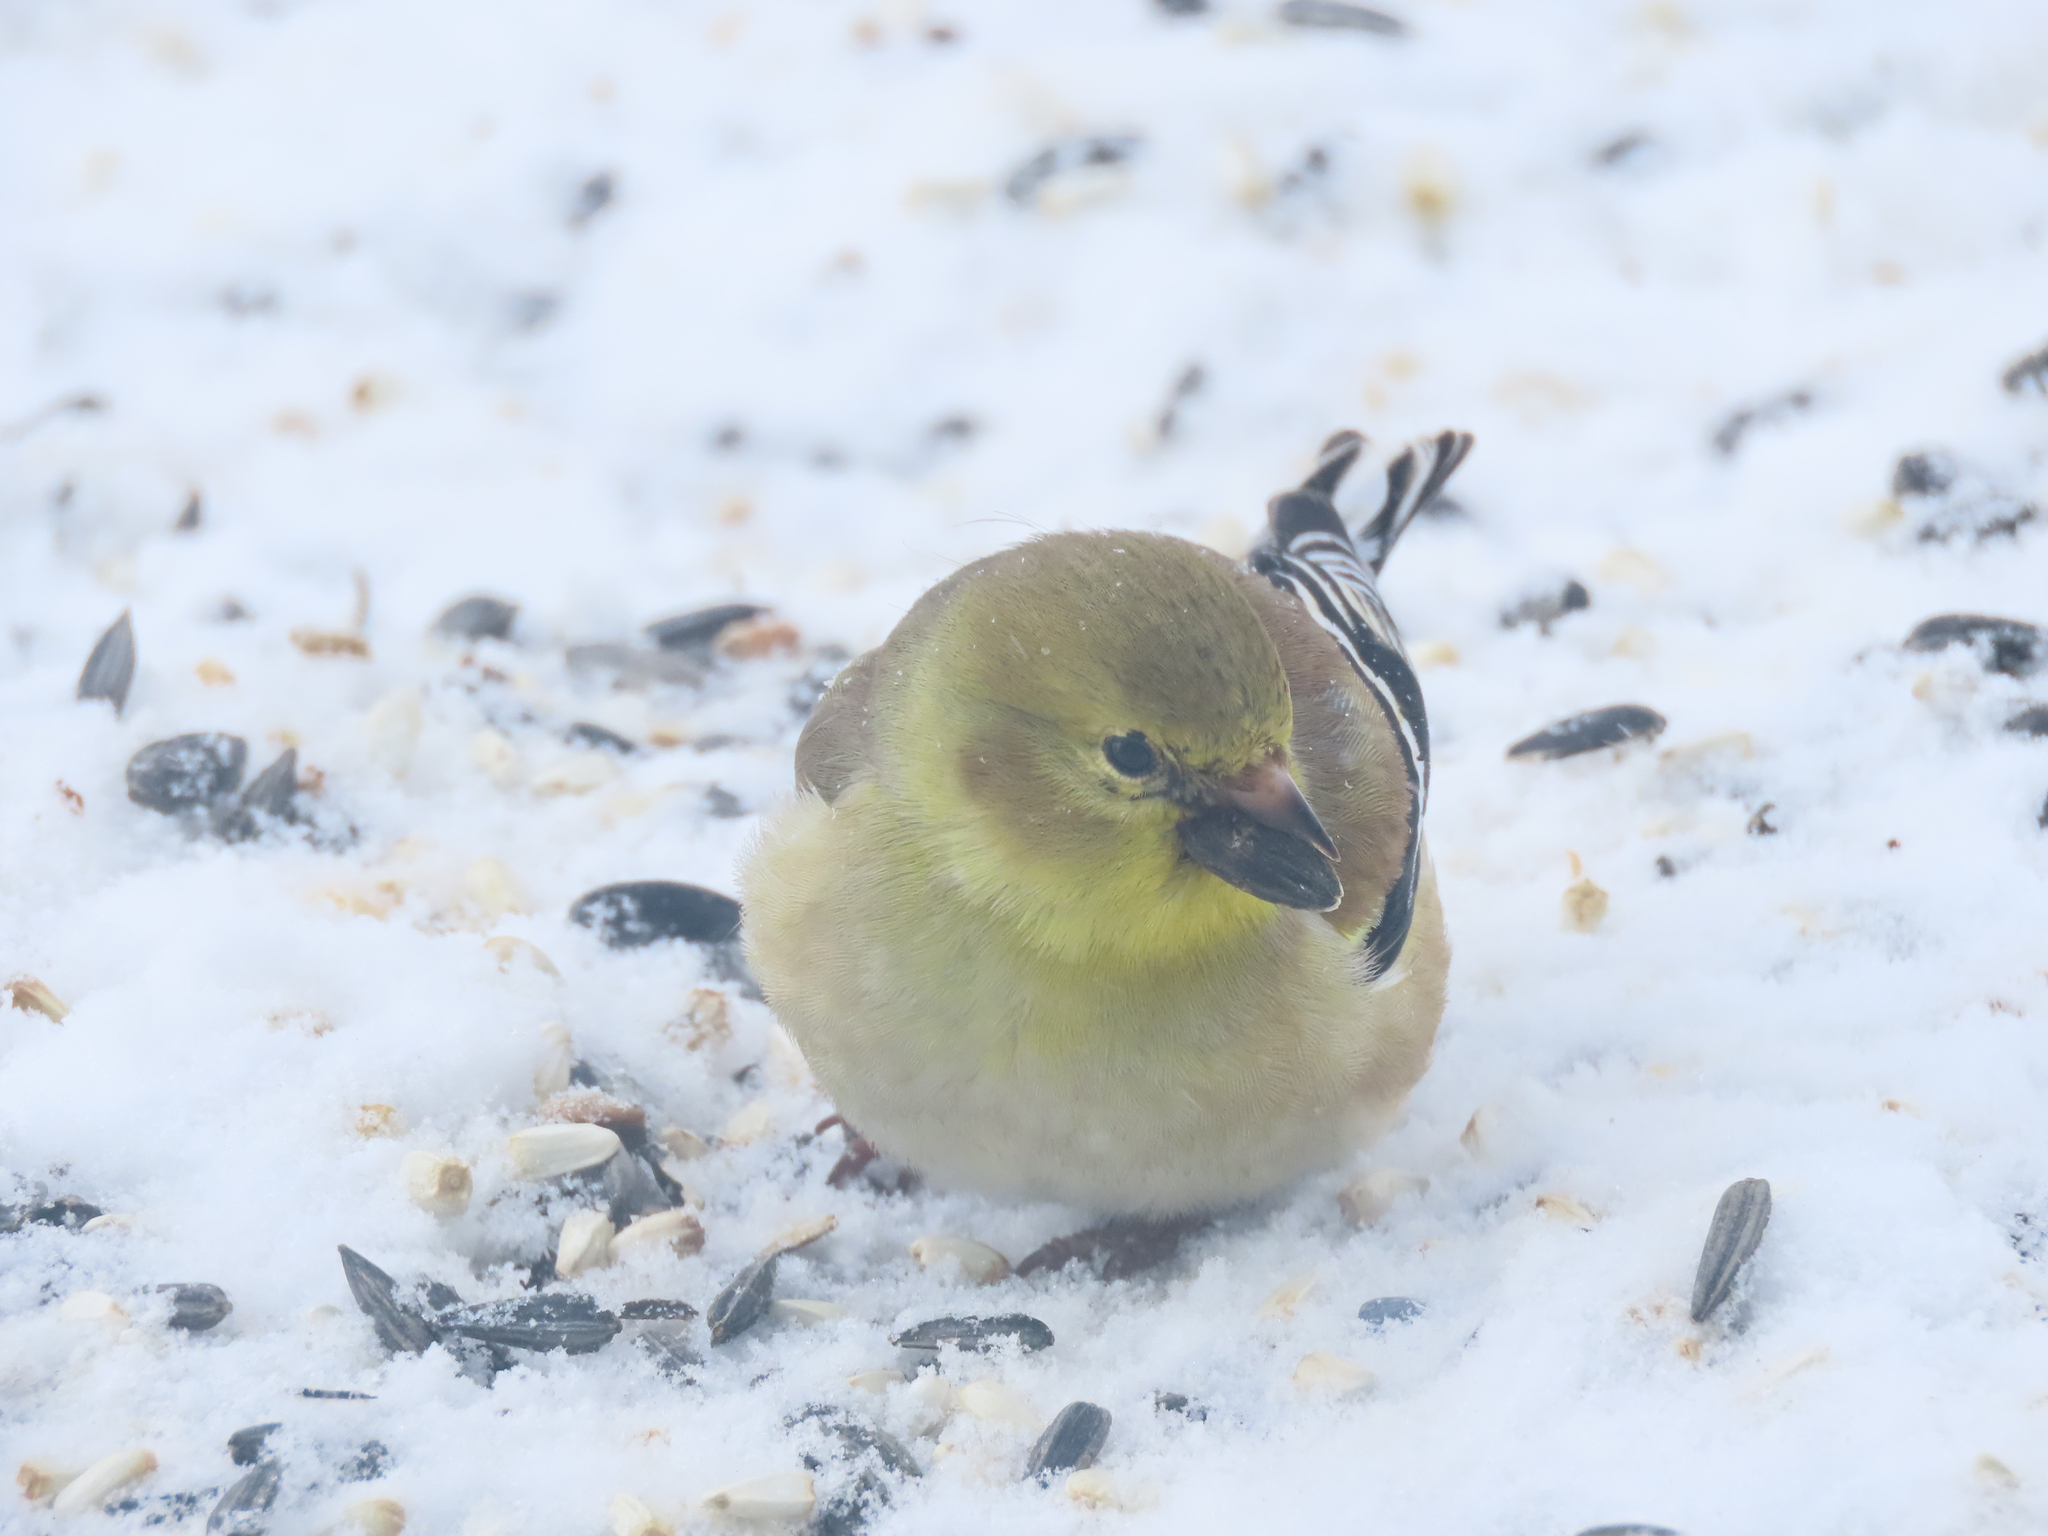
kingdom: Animalia
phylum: Chordata
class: Aves
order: Passeriformes
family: Fringillidae
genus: Spinus
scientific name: Spinus tristis
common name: American goldfinch
